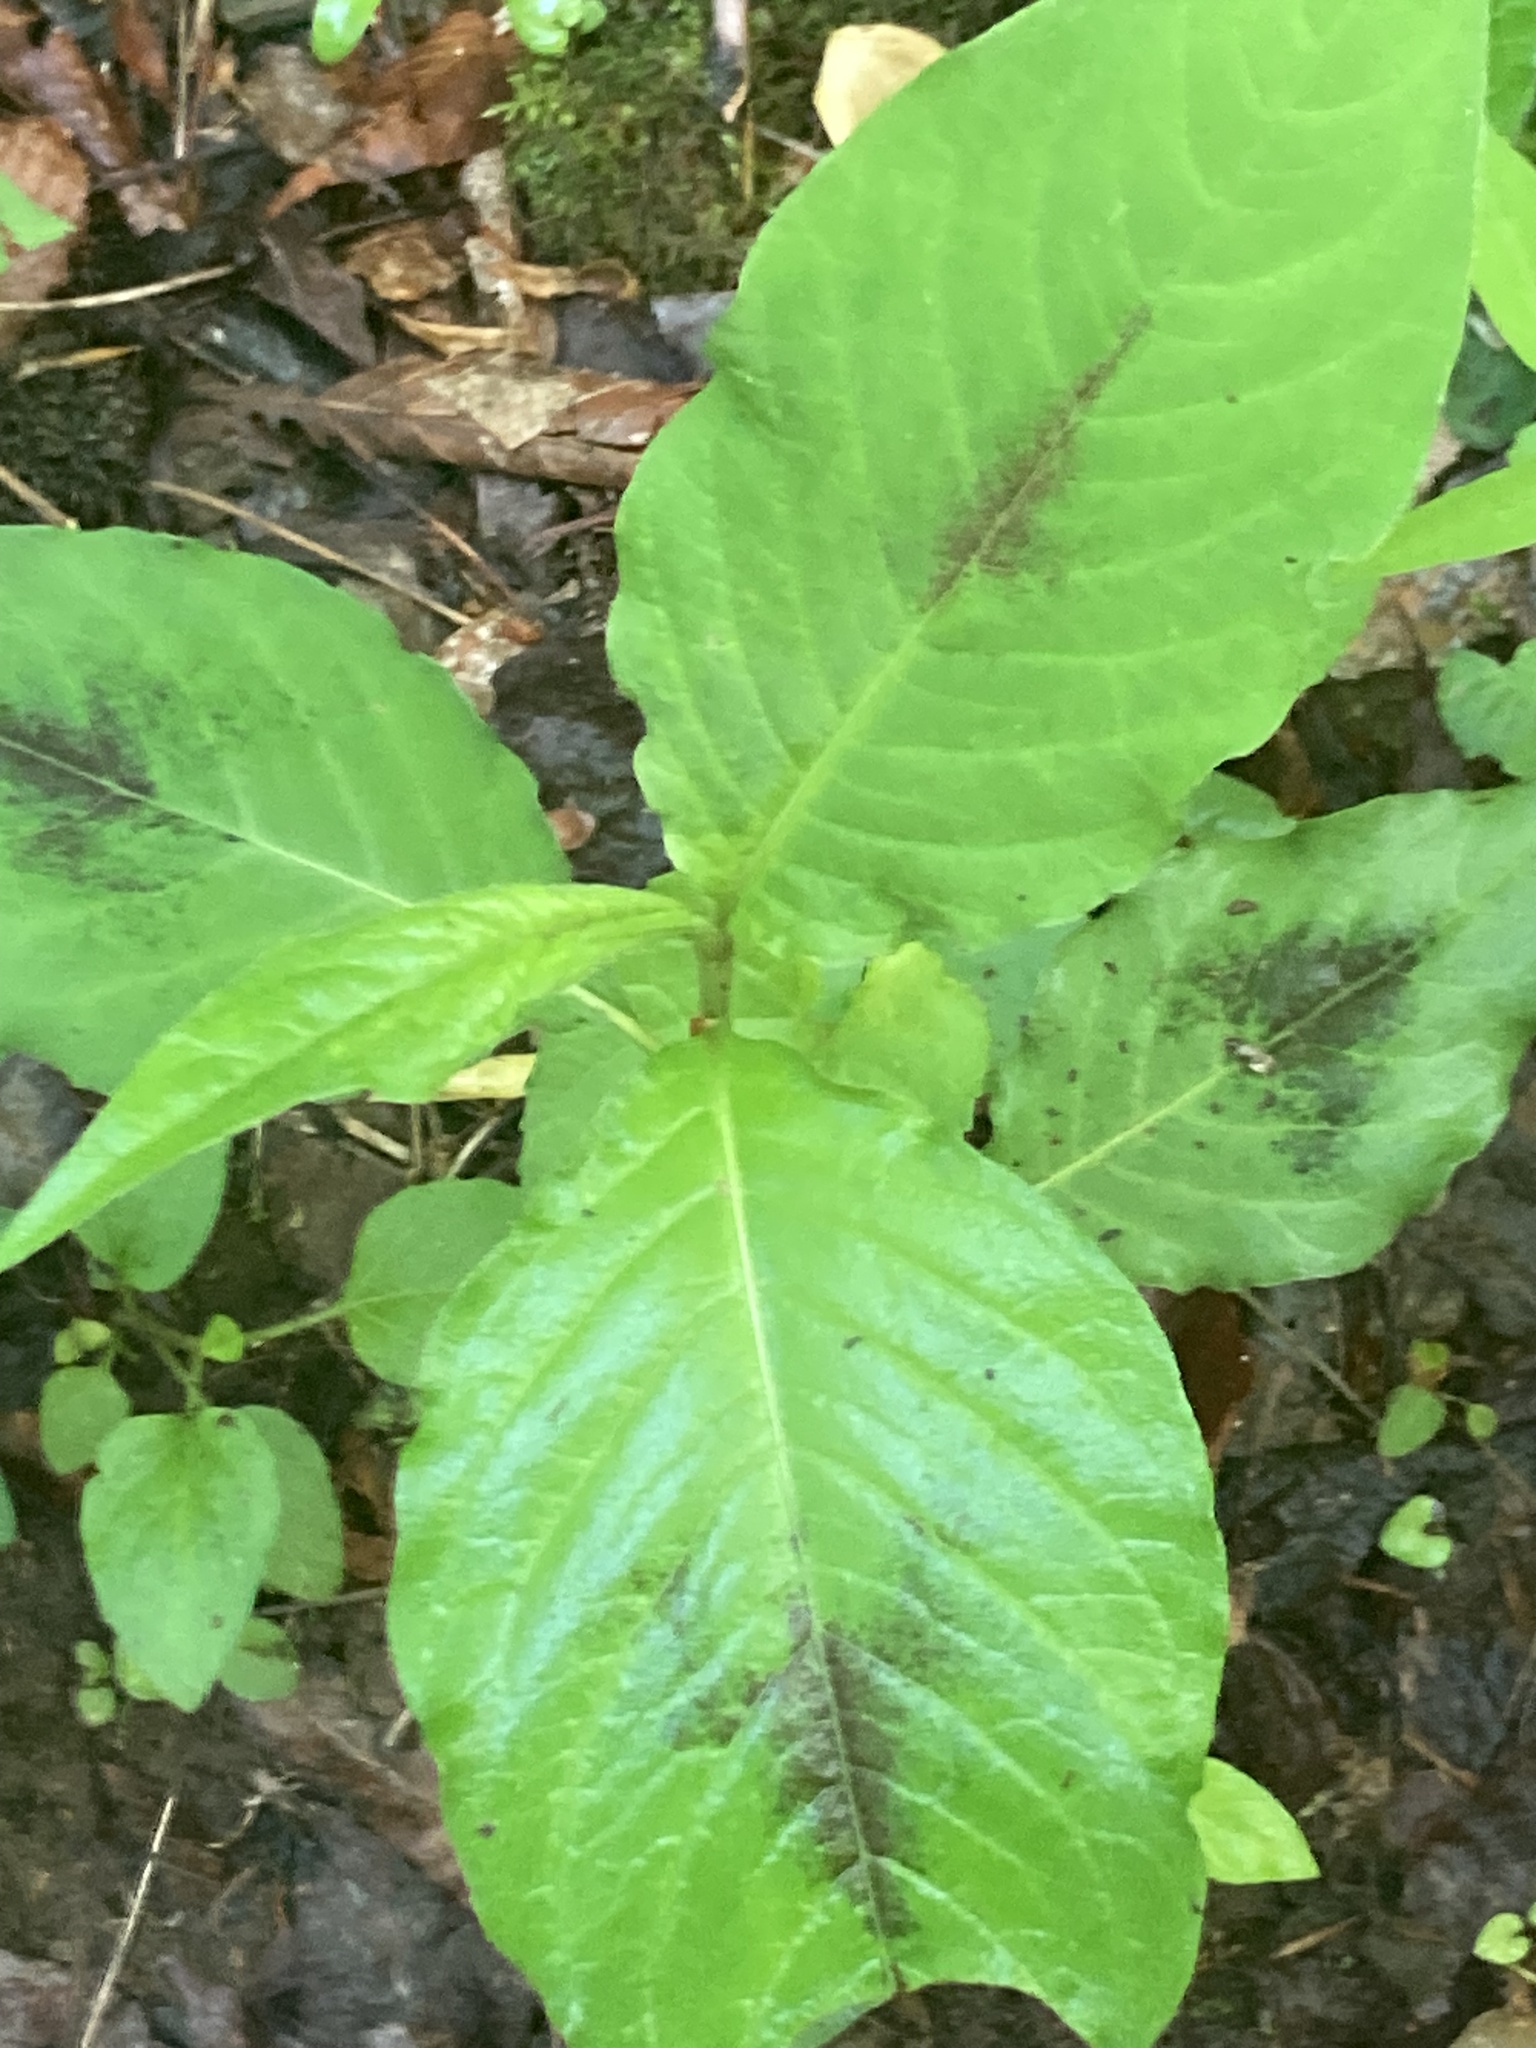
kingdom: Plantae
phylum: Tracheophyta
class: Magnoliopsida
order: Caryophyllales
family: Polygonaceae
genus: Persicaria
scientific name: Persicaria virginiana
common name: Jumpseed
